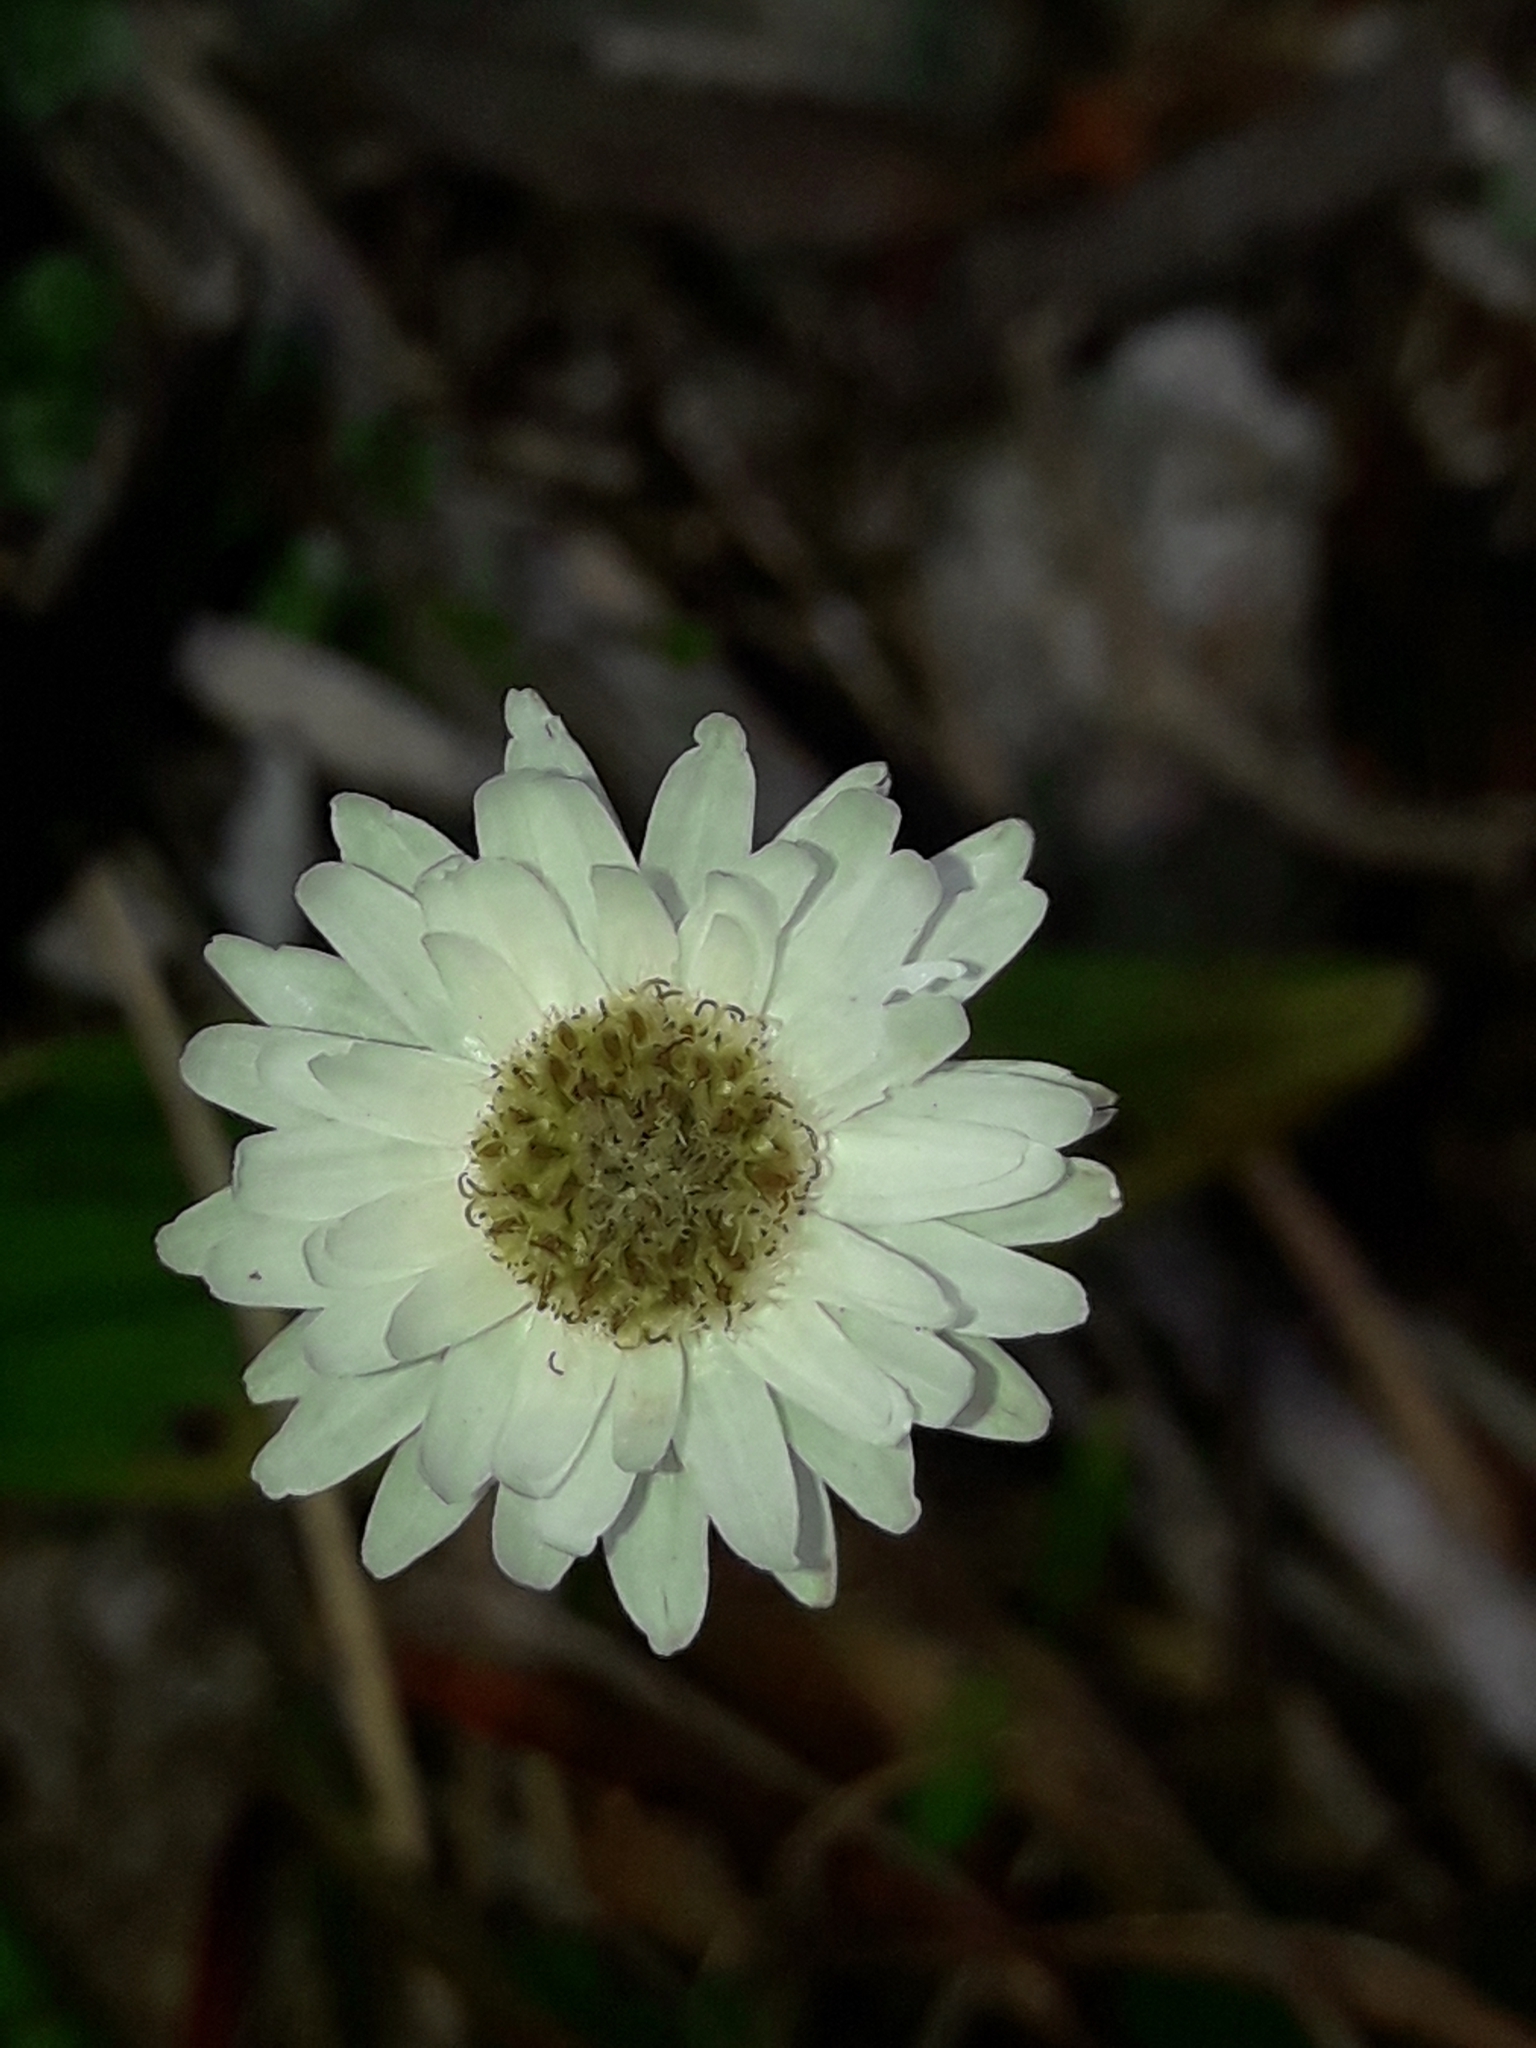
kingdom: Plantae
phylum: Tracheophyta
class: Magnoliopsida
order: Asterales
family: Asteraceae
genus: Anaphalioides
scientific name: Anaphalioides bellidioides
